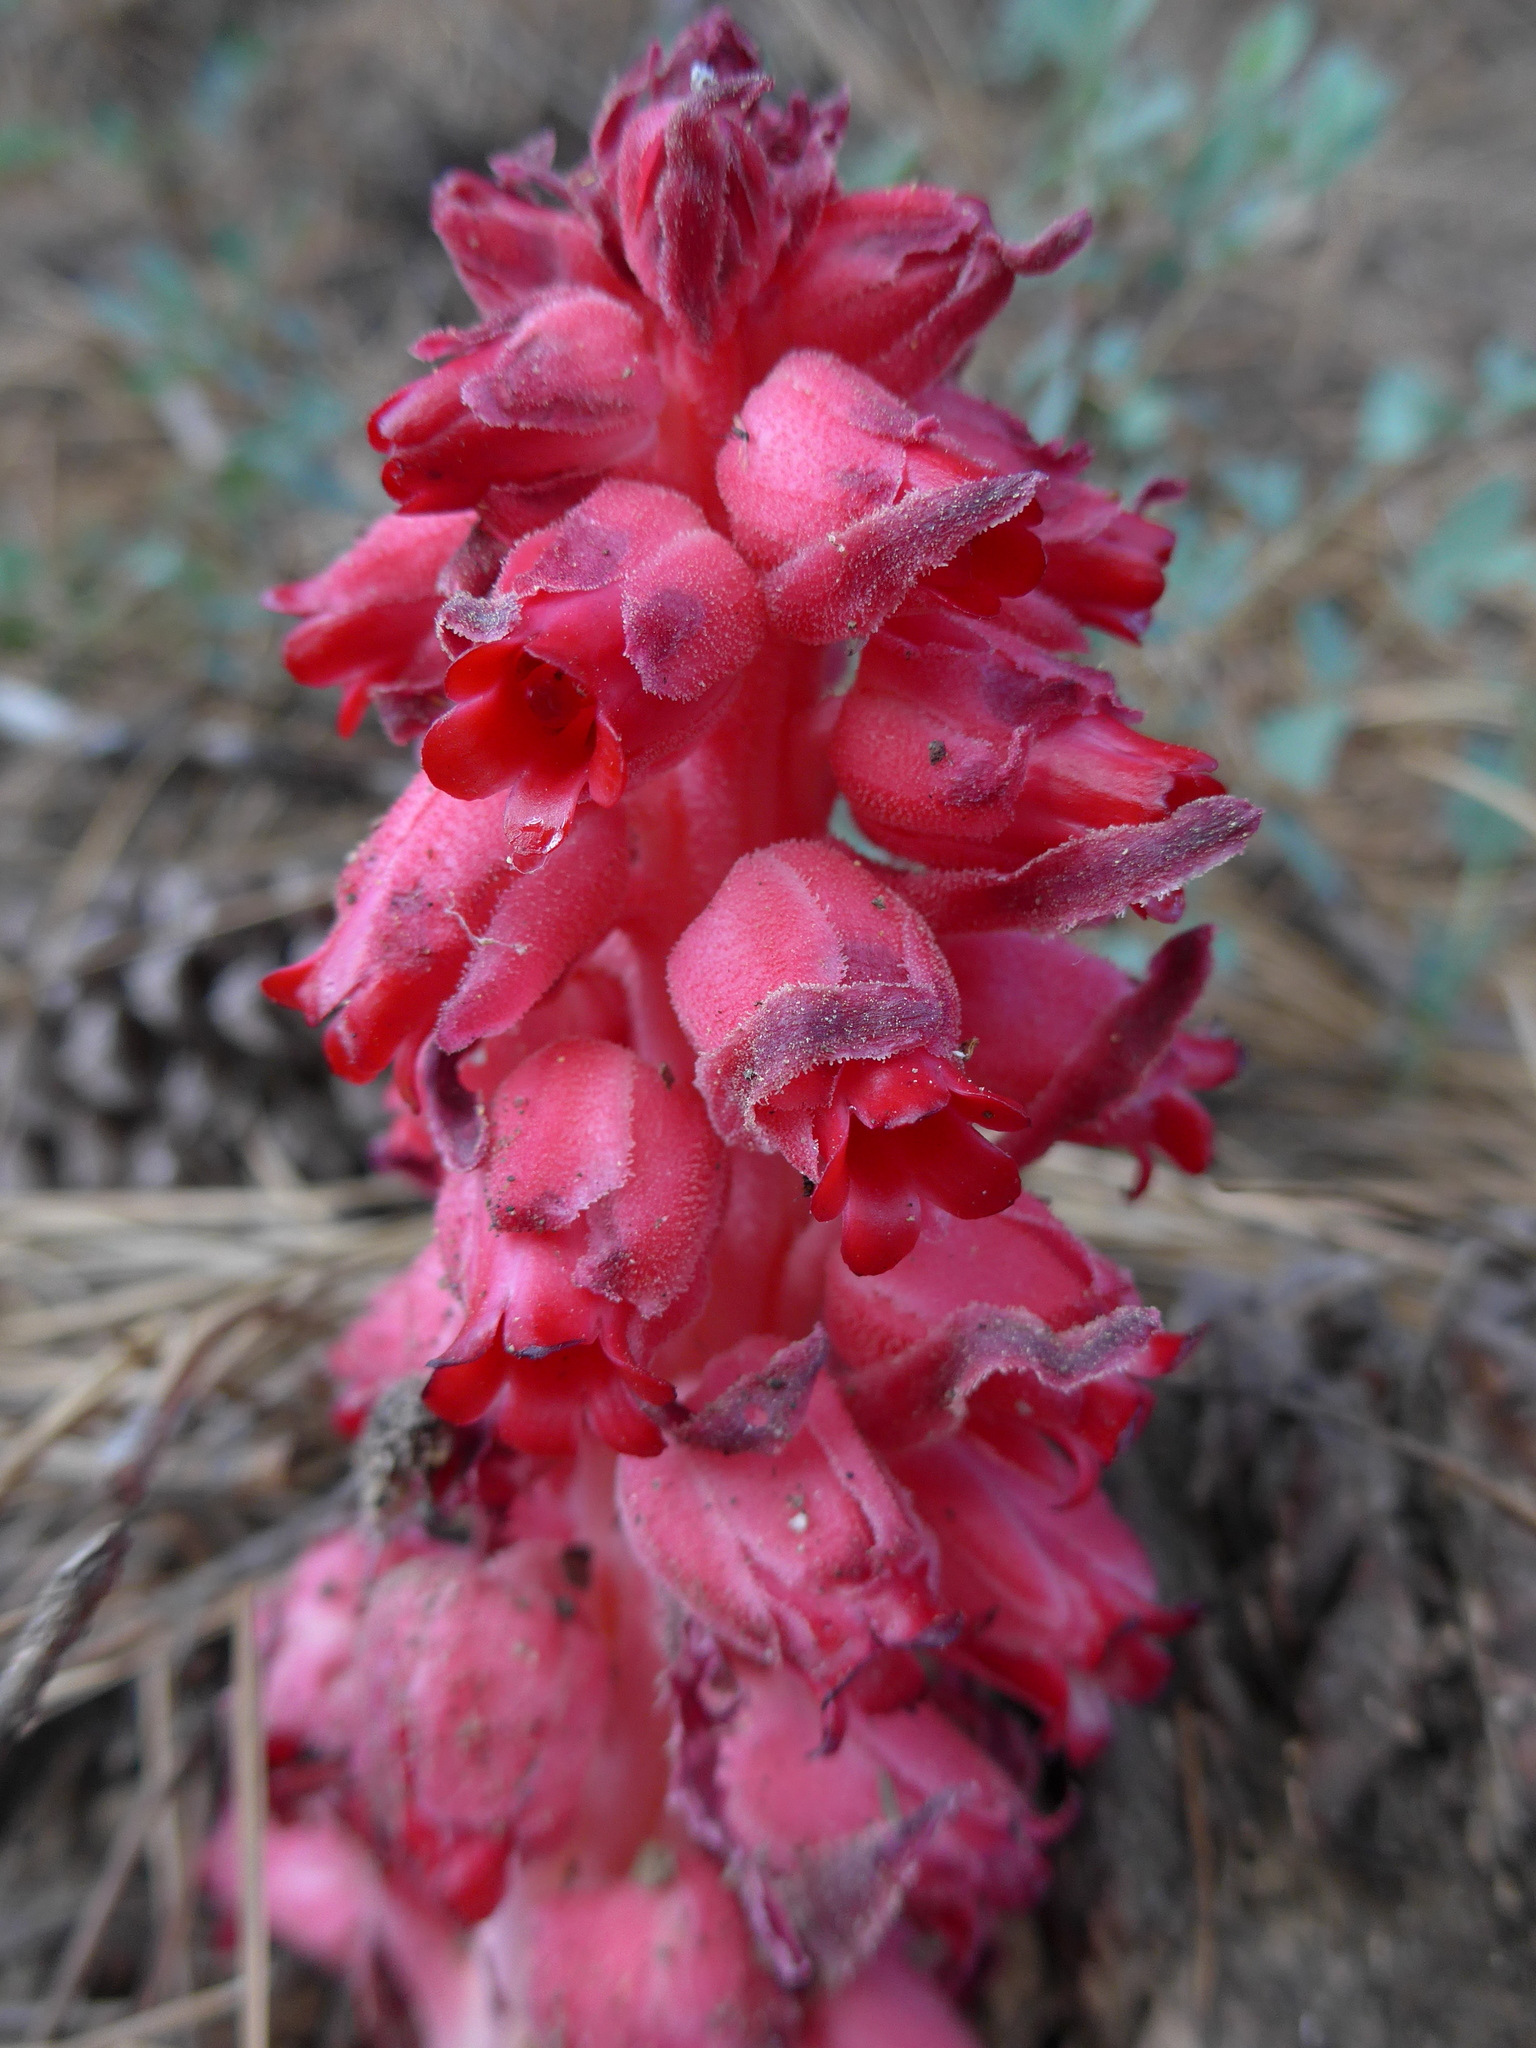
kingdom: Plantae
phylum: Tracheophyta
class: Magnoliopsida
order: Ericales
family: Ericaceae
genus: Sarcodes
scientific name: Sarcodes sanguinea
